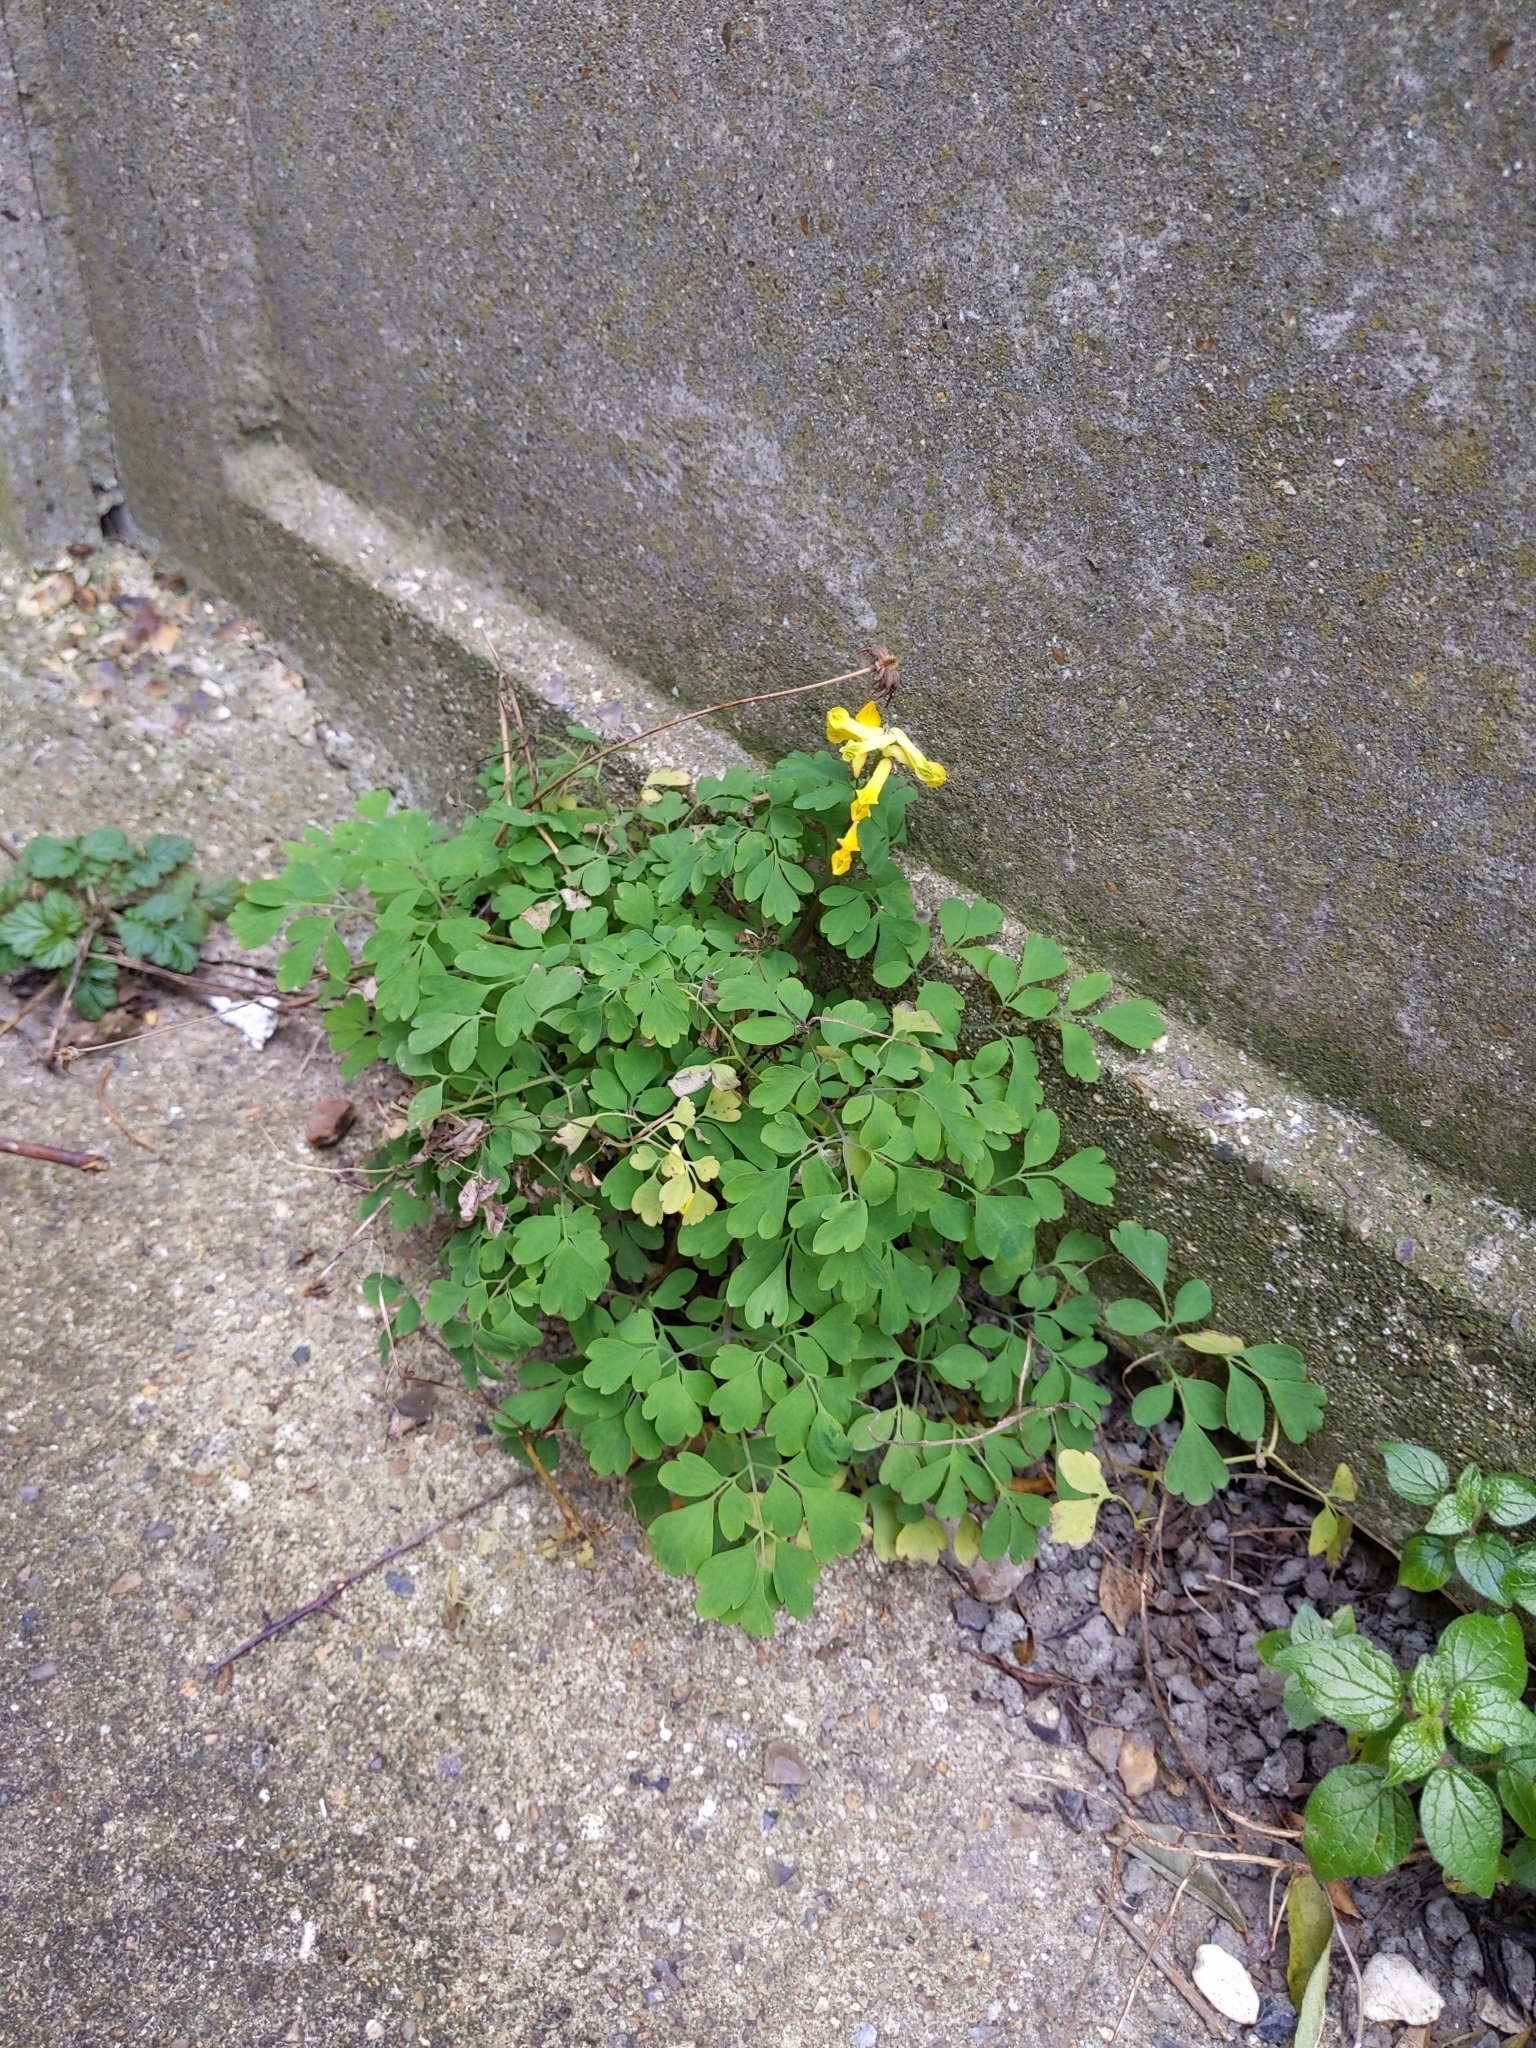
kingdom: Plantae
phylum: Tracheophyta
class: Magnoliopsida
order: Ranunculales
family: Papaveraceae
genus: Pseudofumaria
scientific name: Pseudofumaria lutea
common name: Yellow corydalis
